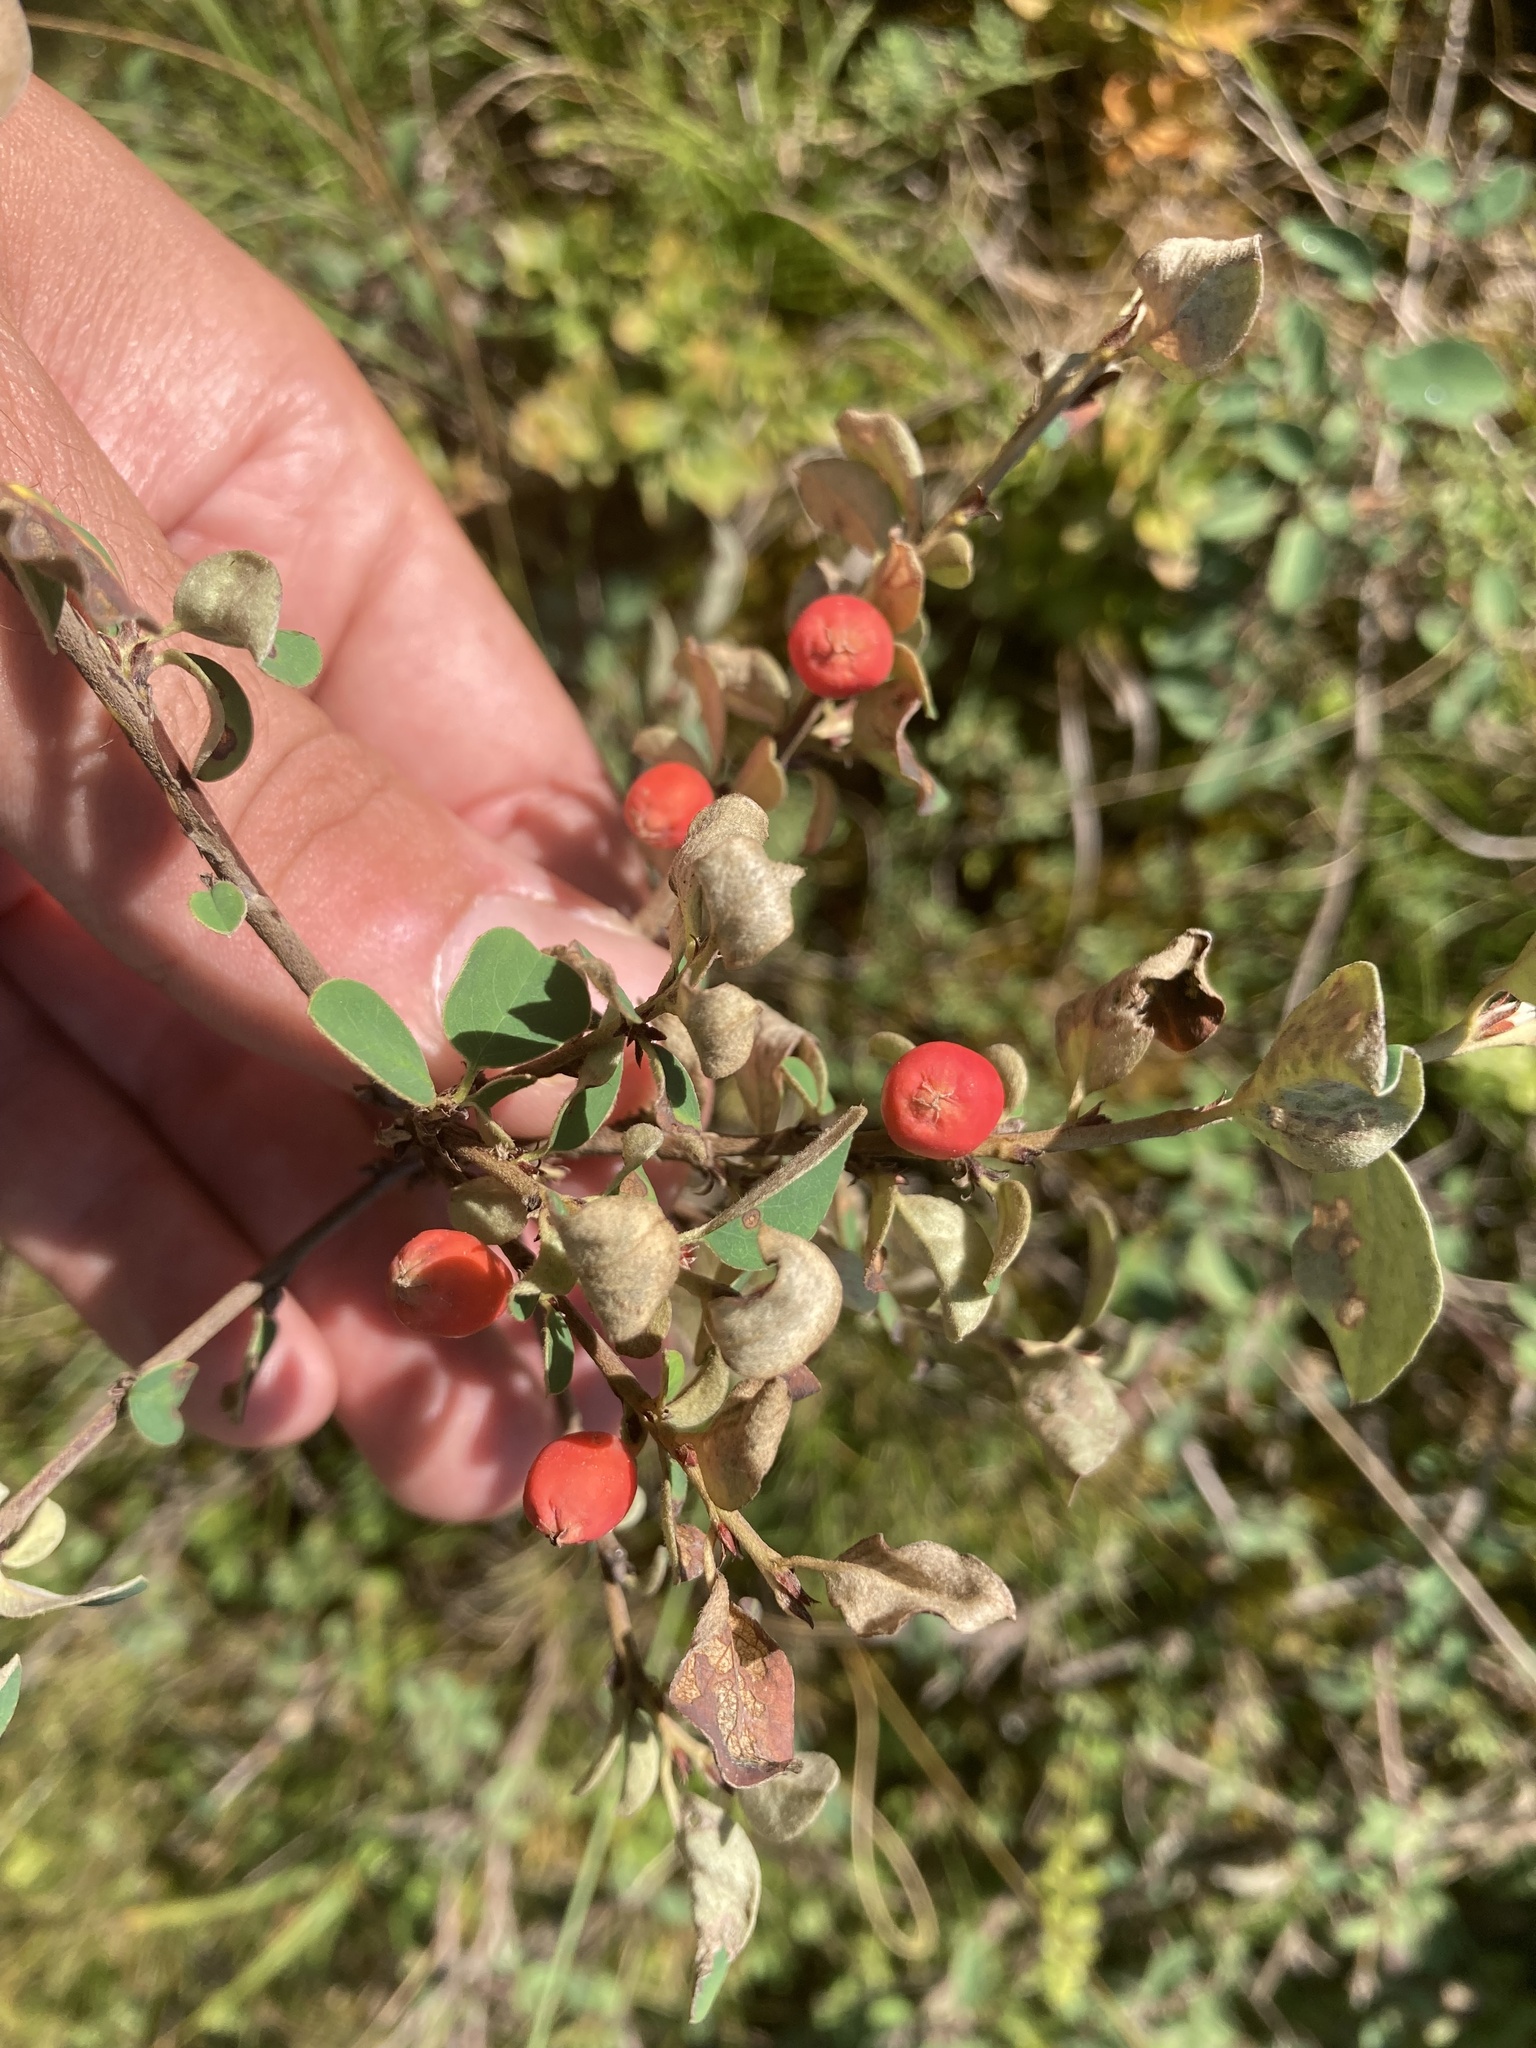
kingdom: Plantae
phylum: Tracheophyta
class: Magnoliopsida
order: Rosales
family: Rosaceae
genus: Cotoneaster
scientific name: Cotoneaster integerrimus
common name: Wild cotoneaster
